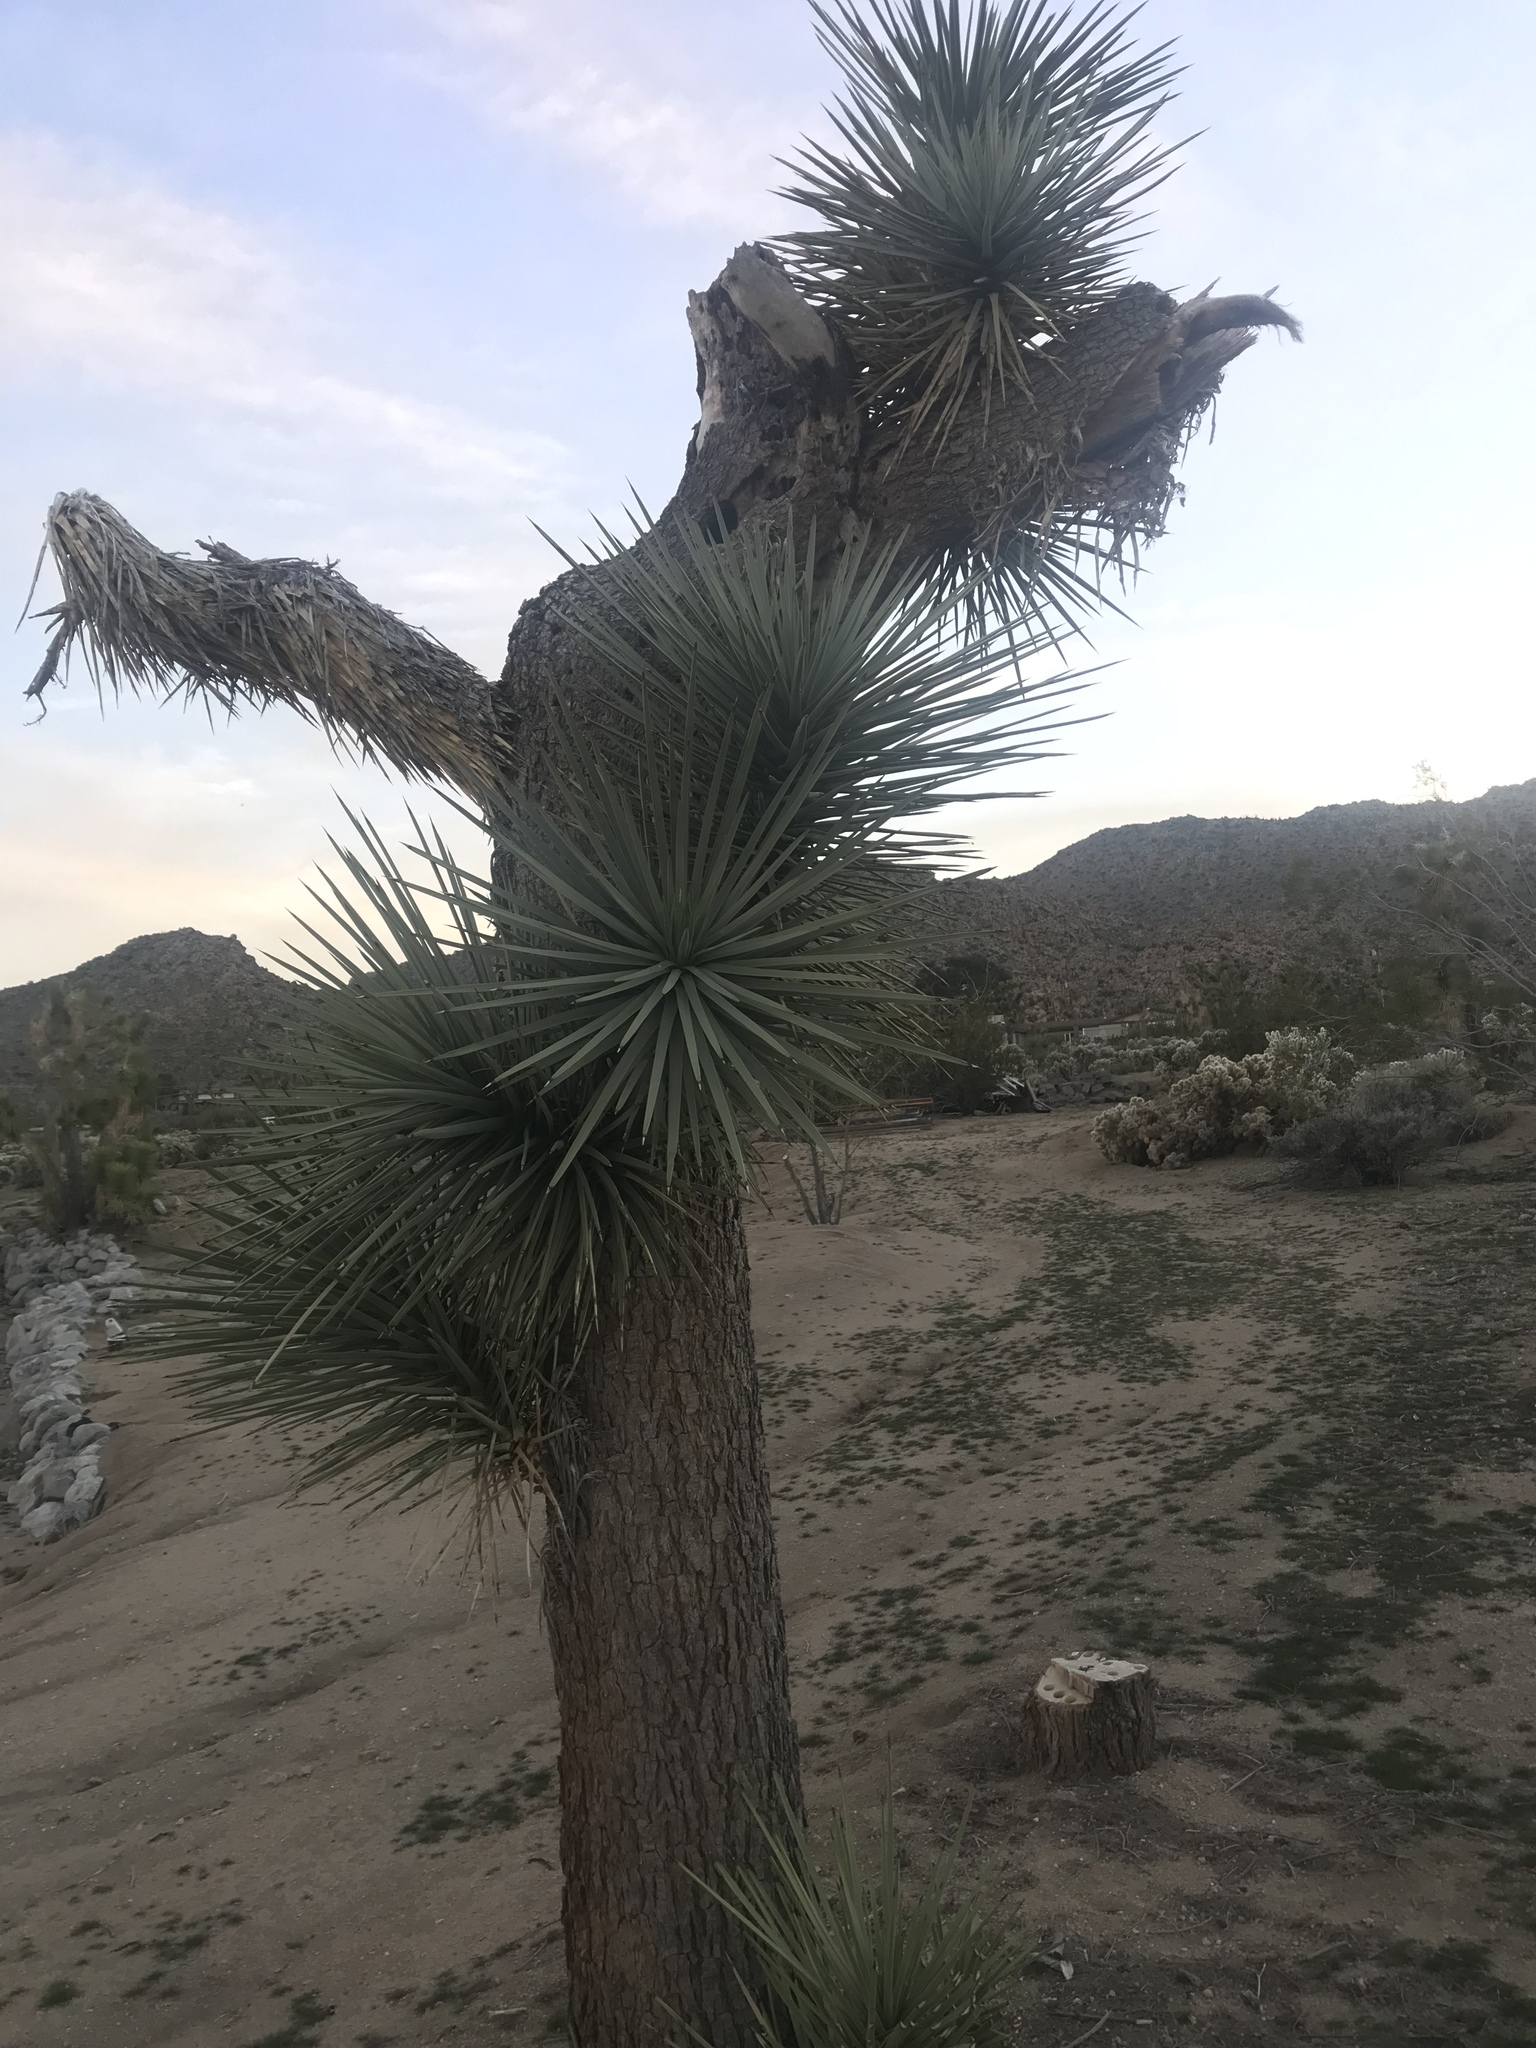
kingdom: Plantae
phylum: Tracheophyta
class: Liliopsida
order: Asparagales
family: Asparagaceae
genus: Yucca
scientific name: Yucca brevifolia
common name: Joshua tree
